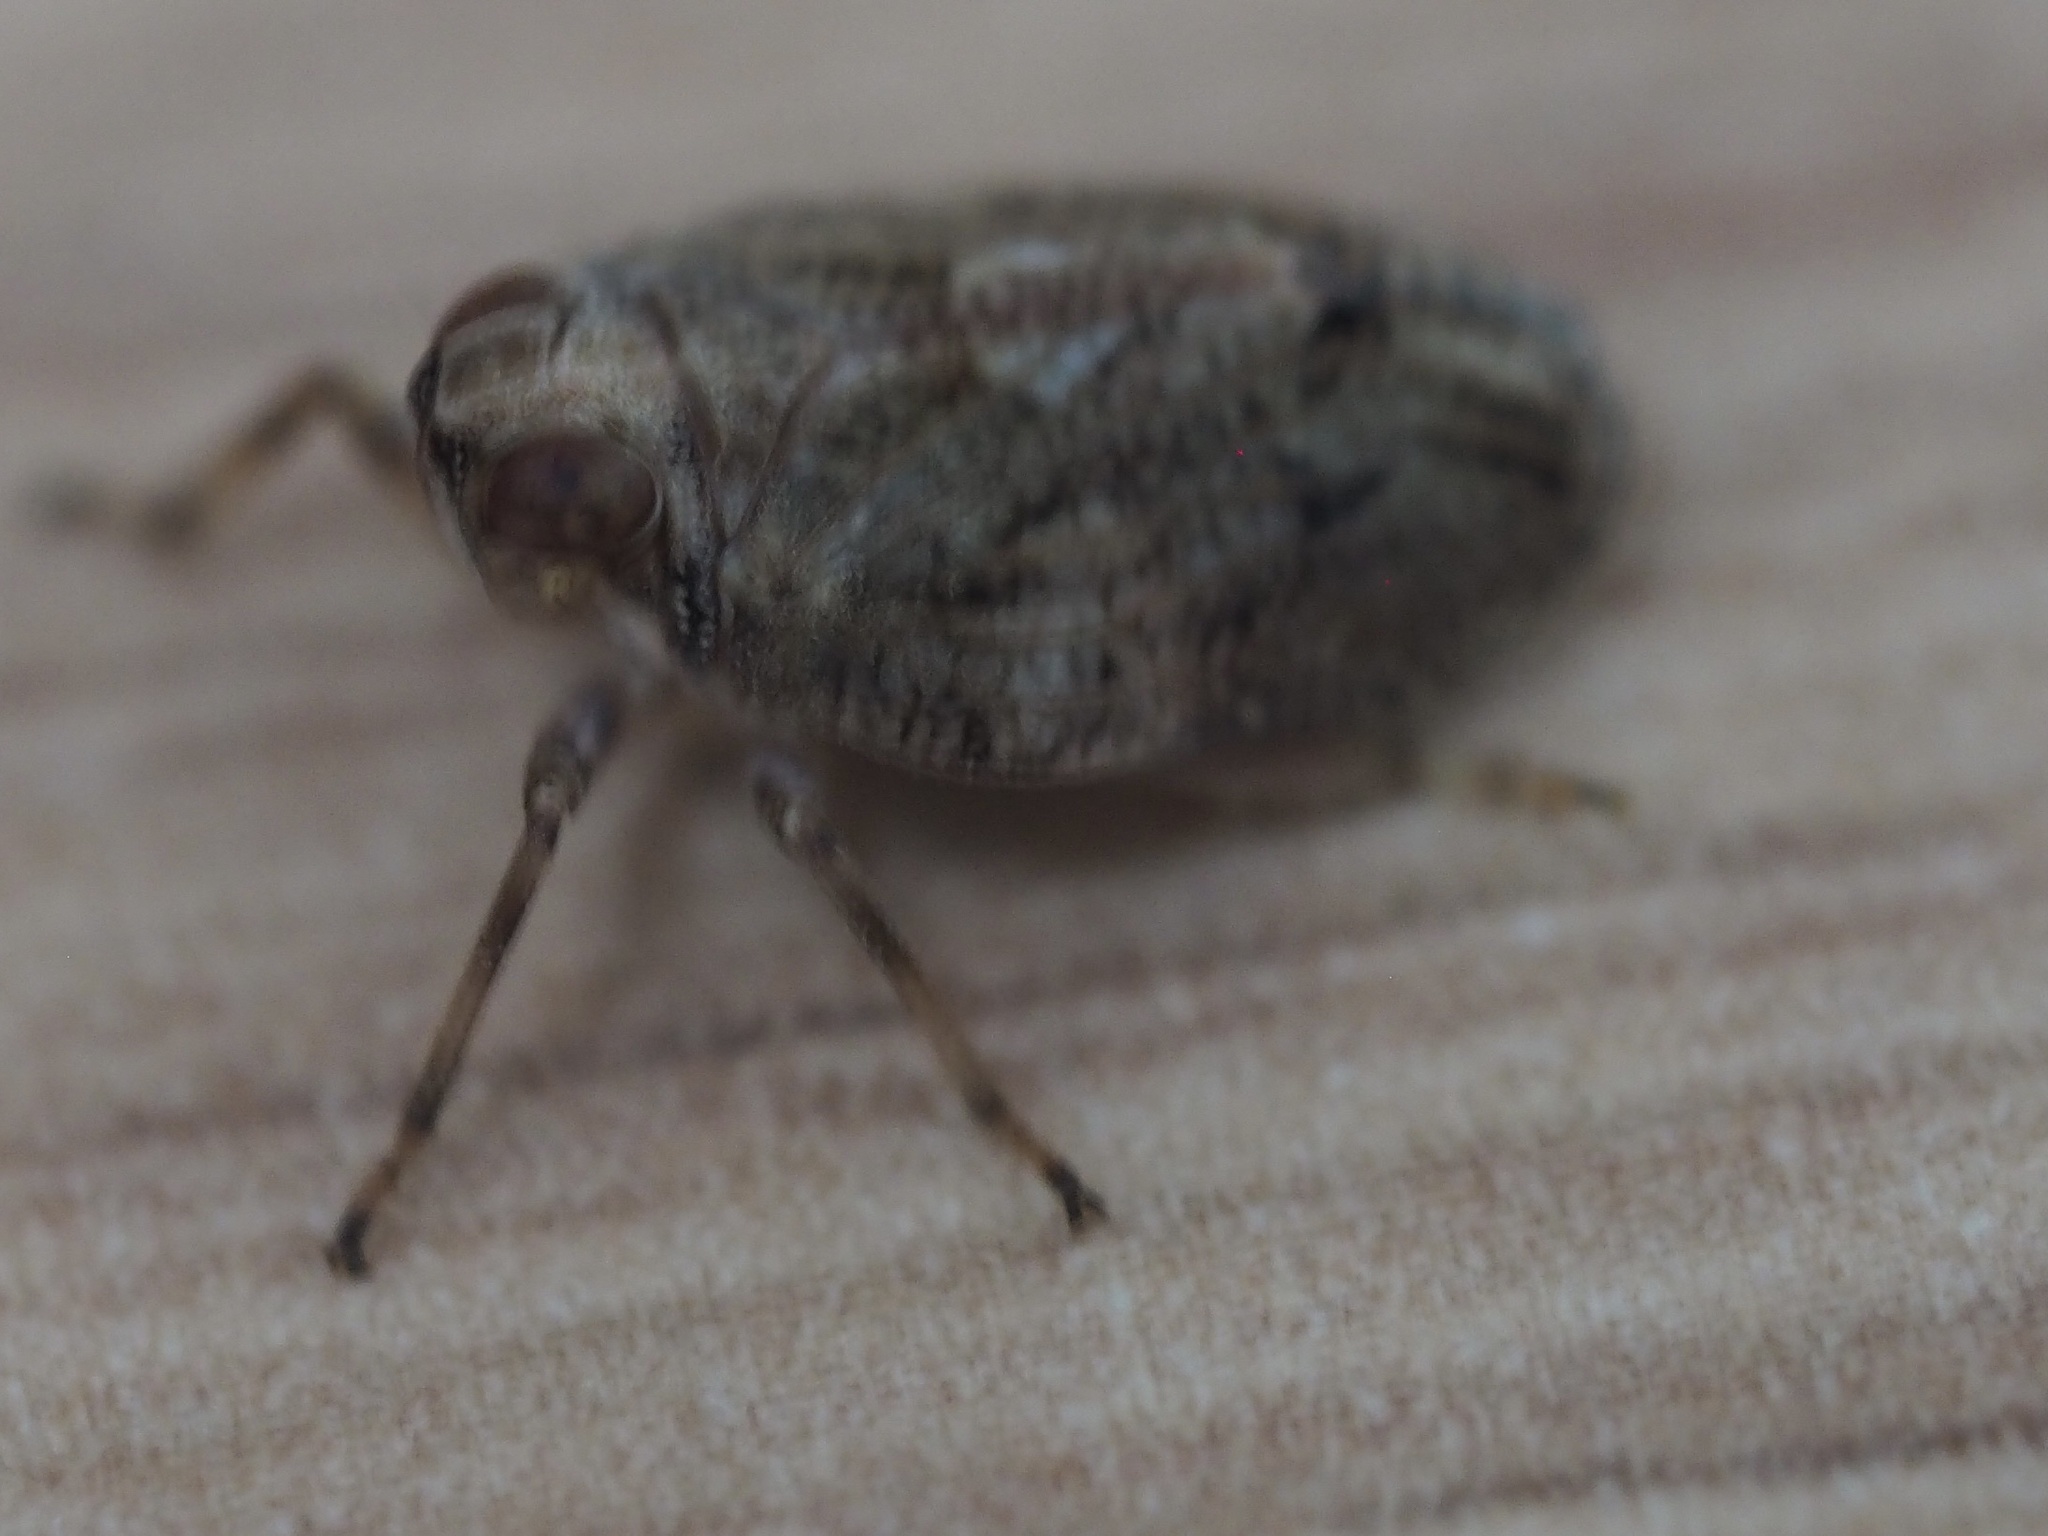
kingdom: Animalia
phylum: Arthropoda
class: Insecta
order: Hemiptera
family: Issidae
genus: Issus
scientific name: Issus coleoptratus
